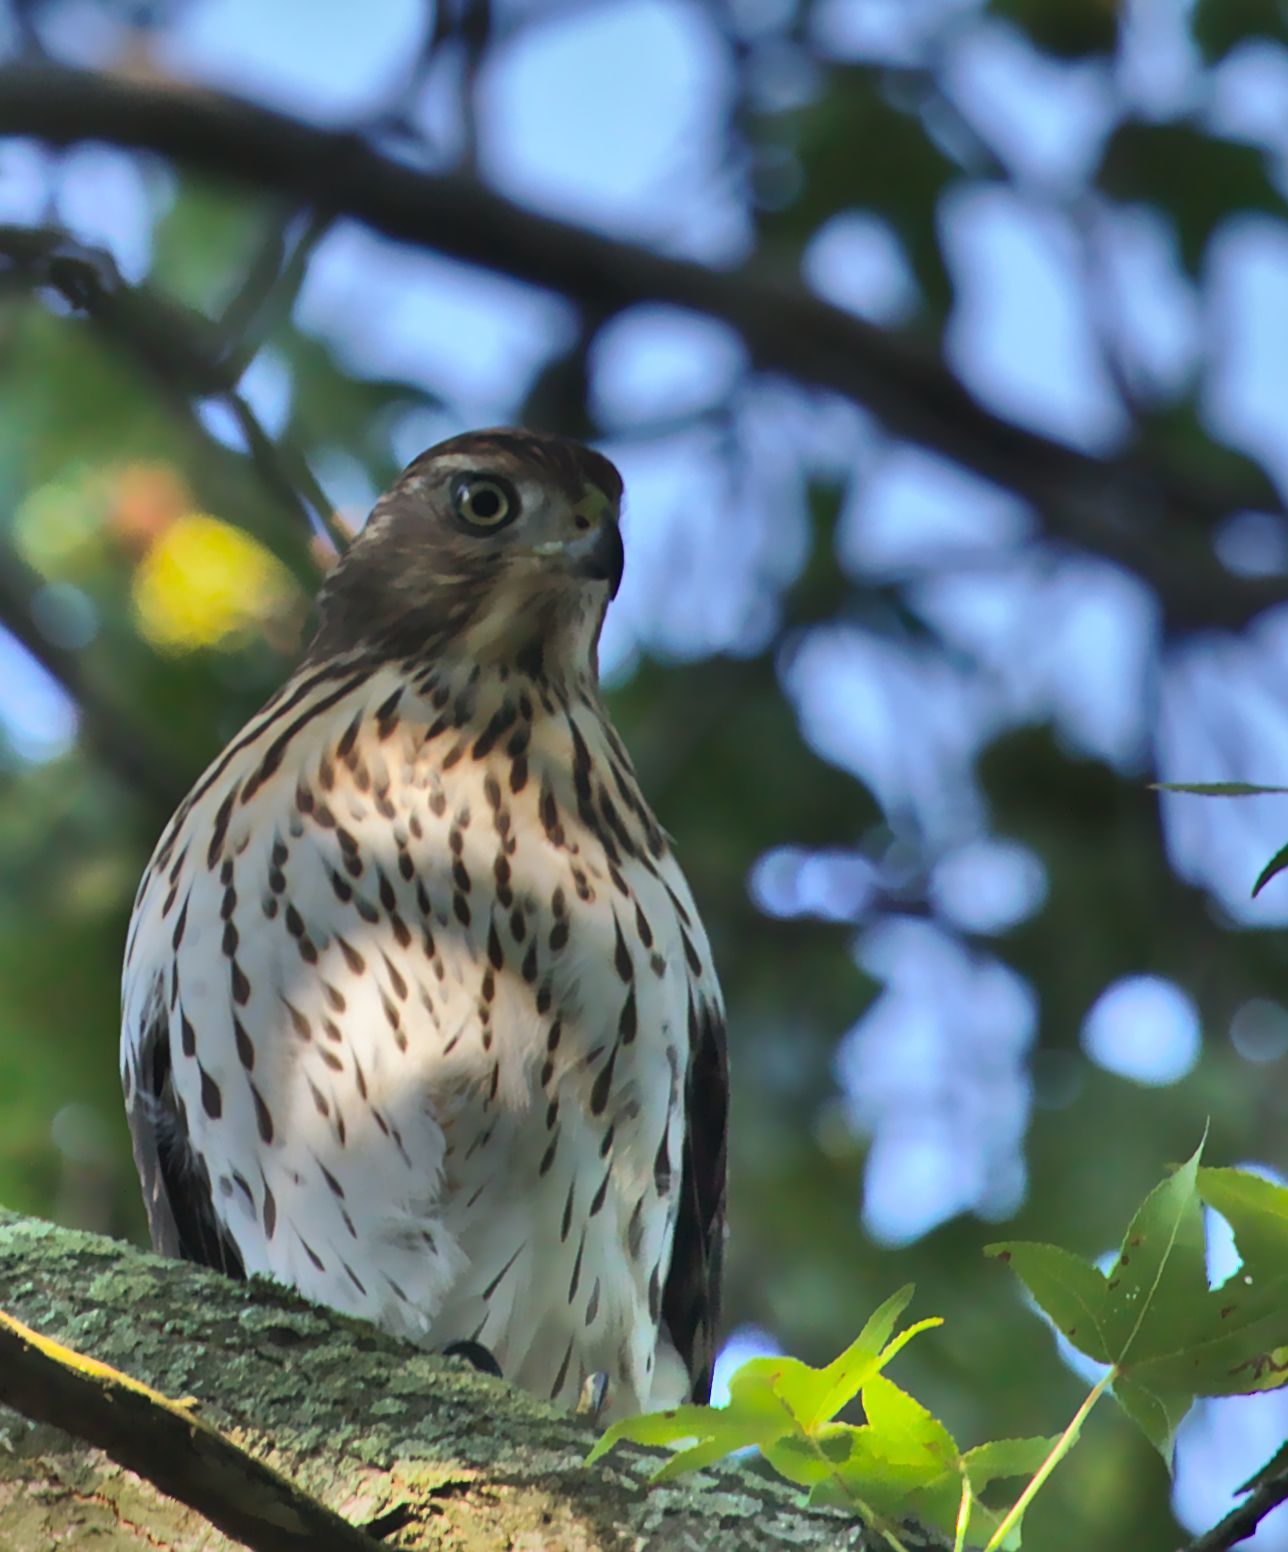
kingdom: Animalia
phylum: Chordata
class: Aves
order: Accipitriformes
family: Accipitridae
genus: Accipiter
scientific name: Accipiter cooperii
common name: Cooper's hawk
